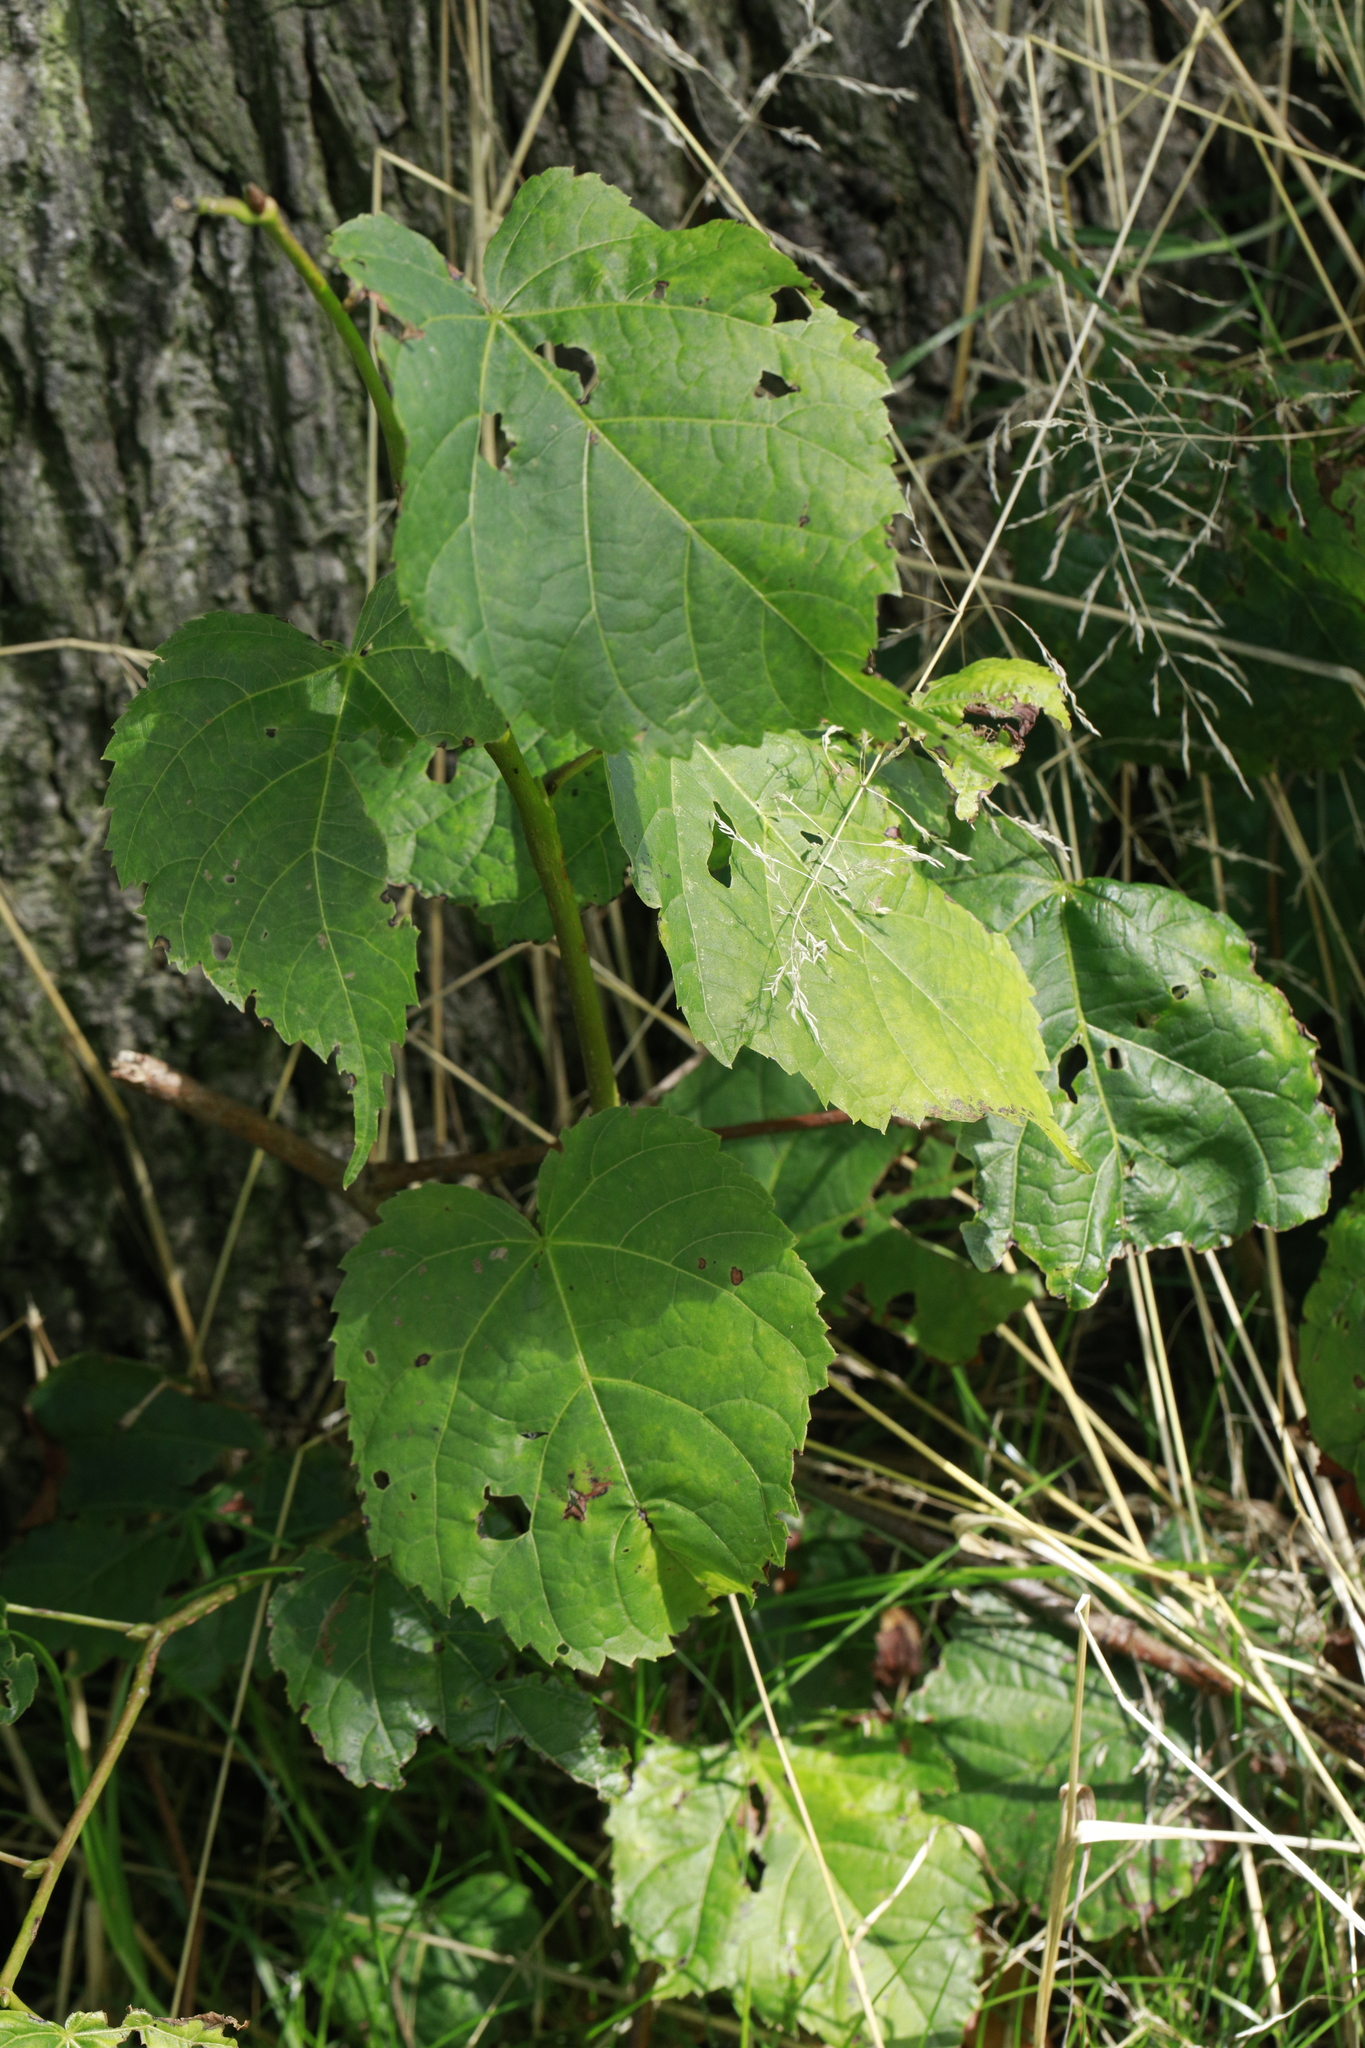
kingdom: Plantae
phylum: Tracheophyta
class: Magnoliopsida
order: Malvales
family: Malvaceae
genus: Tilia
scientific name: Tilia europaea
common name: European linden
